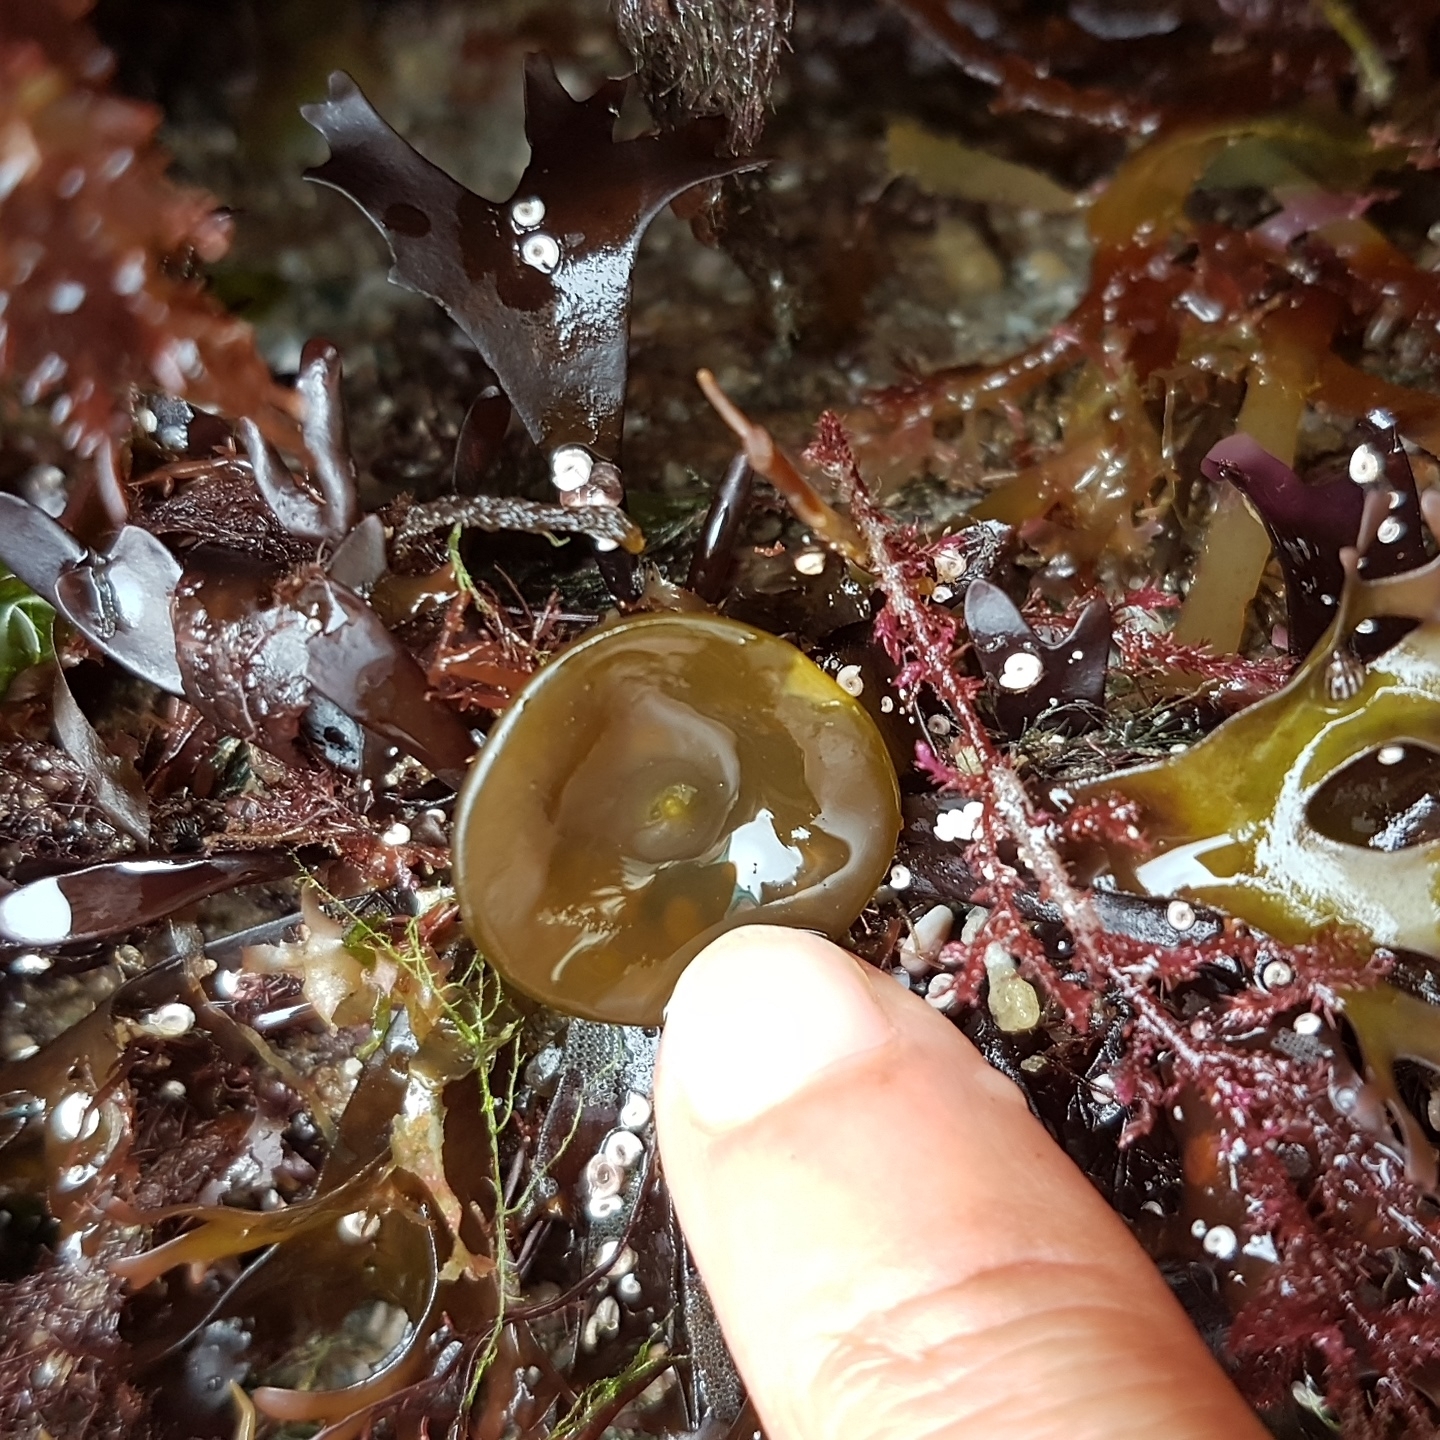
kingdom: Chromista
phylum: Ochrophyta
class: Phaeophyceae
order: Fucales
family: Himanthaliaceae
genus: Himanthalia
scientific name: Himanthalia elongata
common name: Sea-thong
